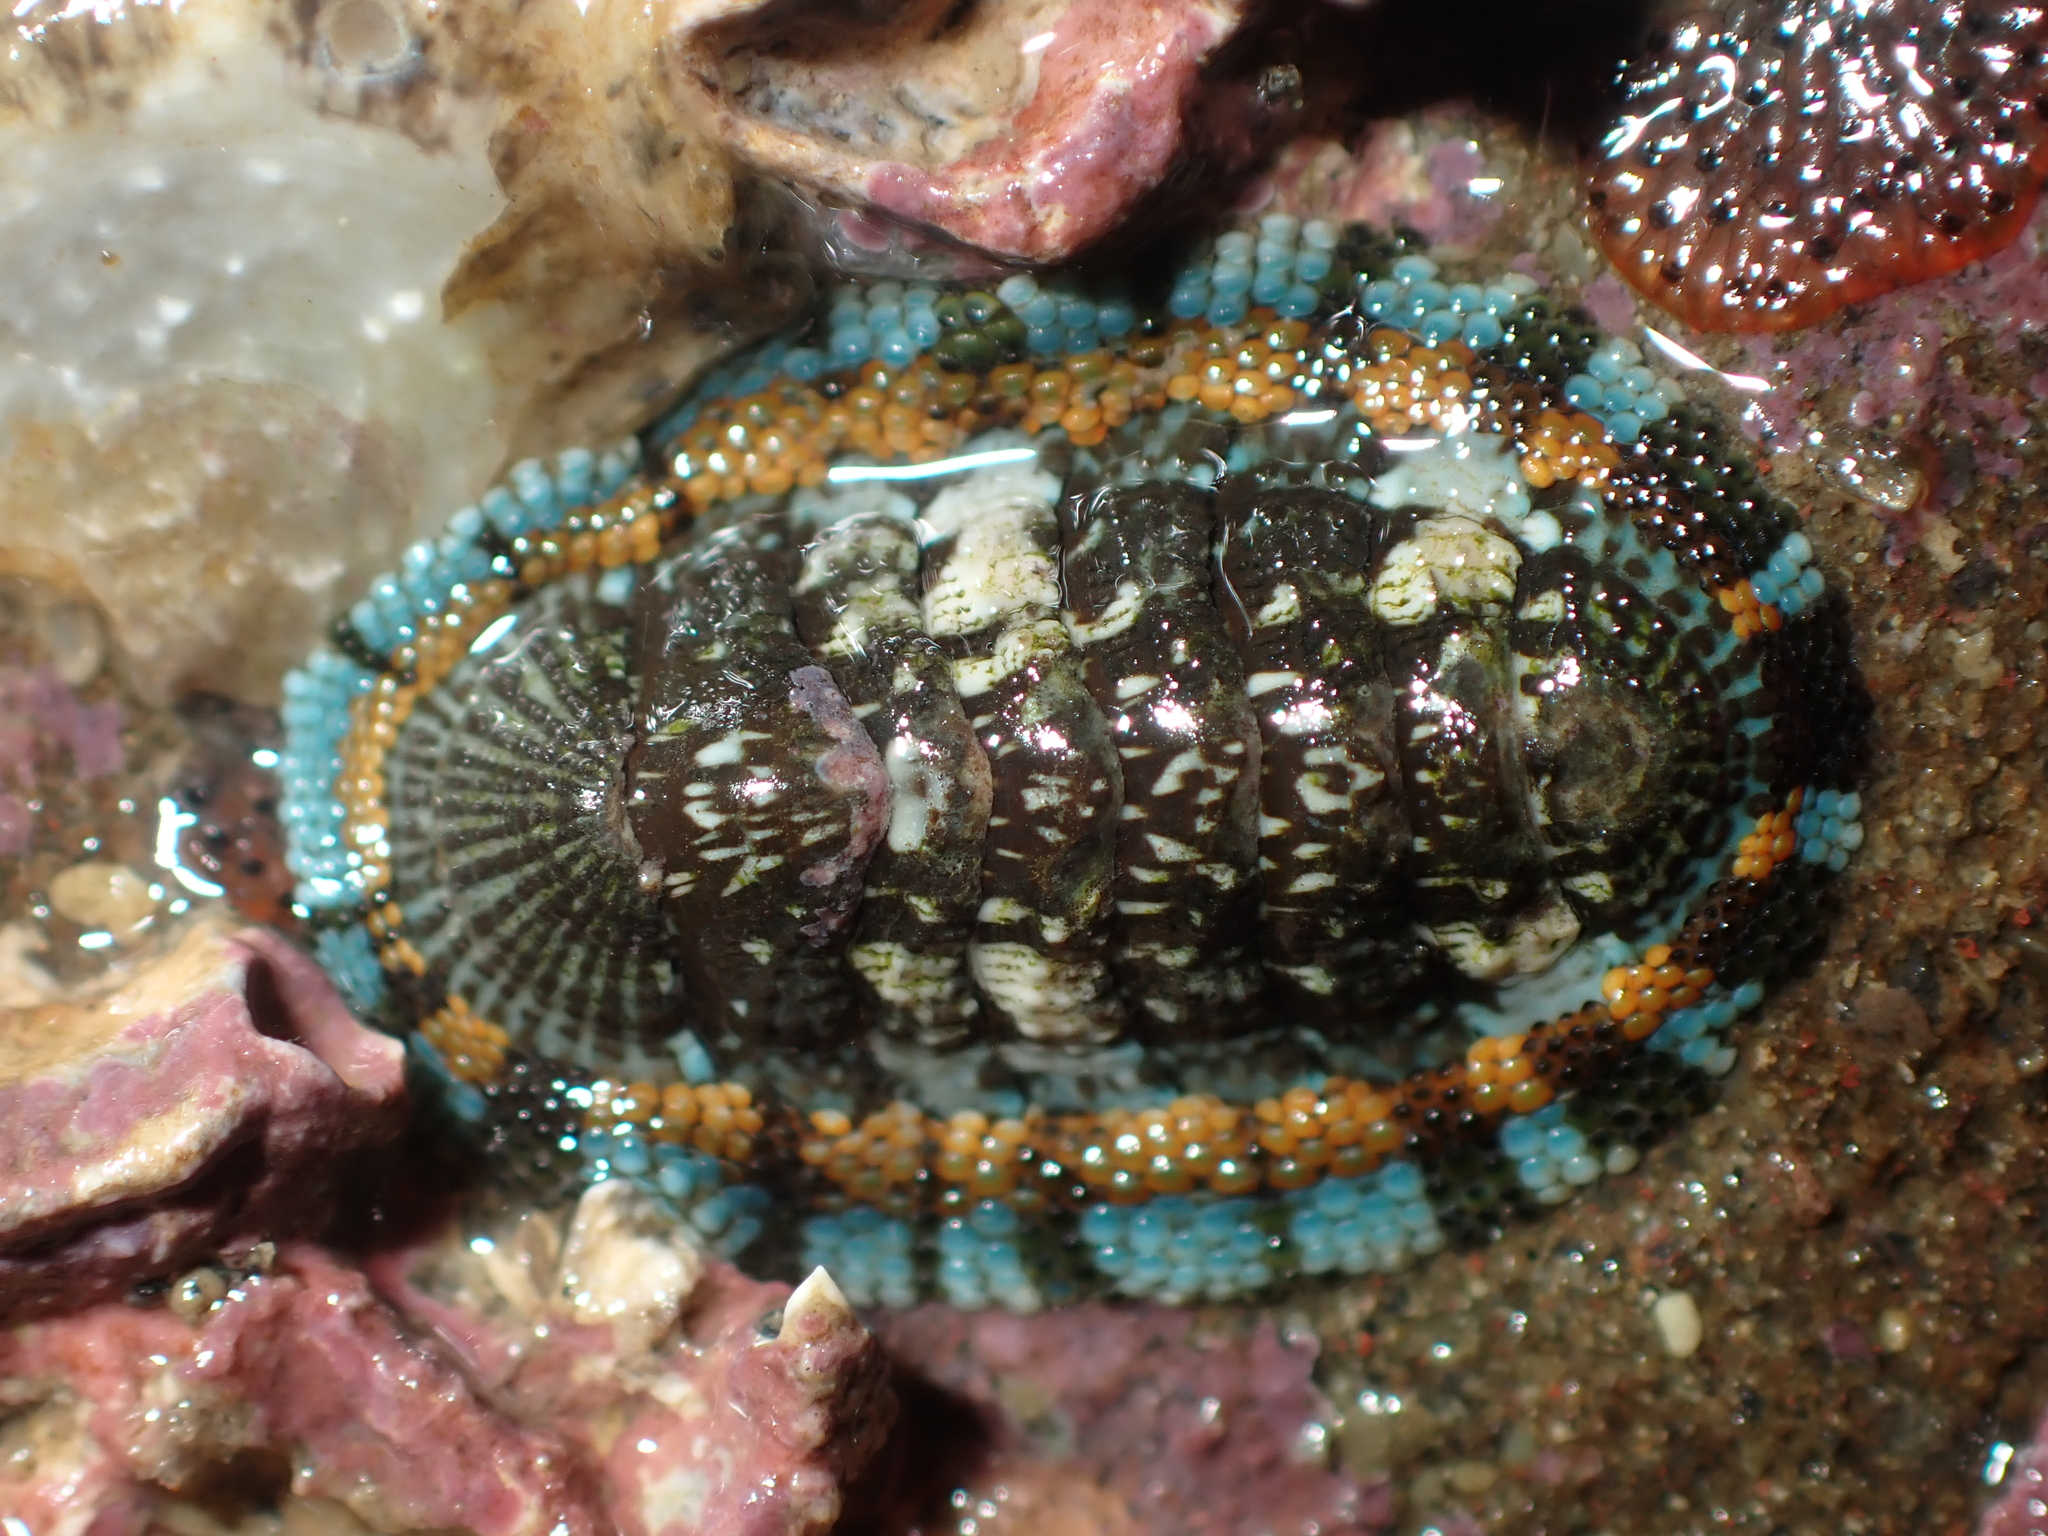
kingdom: Animalia
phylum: Mollusca
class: Polyplacophora
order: Chitonida
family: Chitonidae
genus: Sypharochiton
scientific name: Sypharochiton sinclairi
